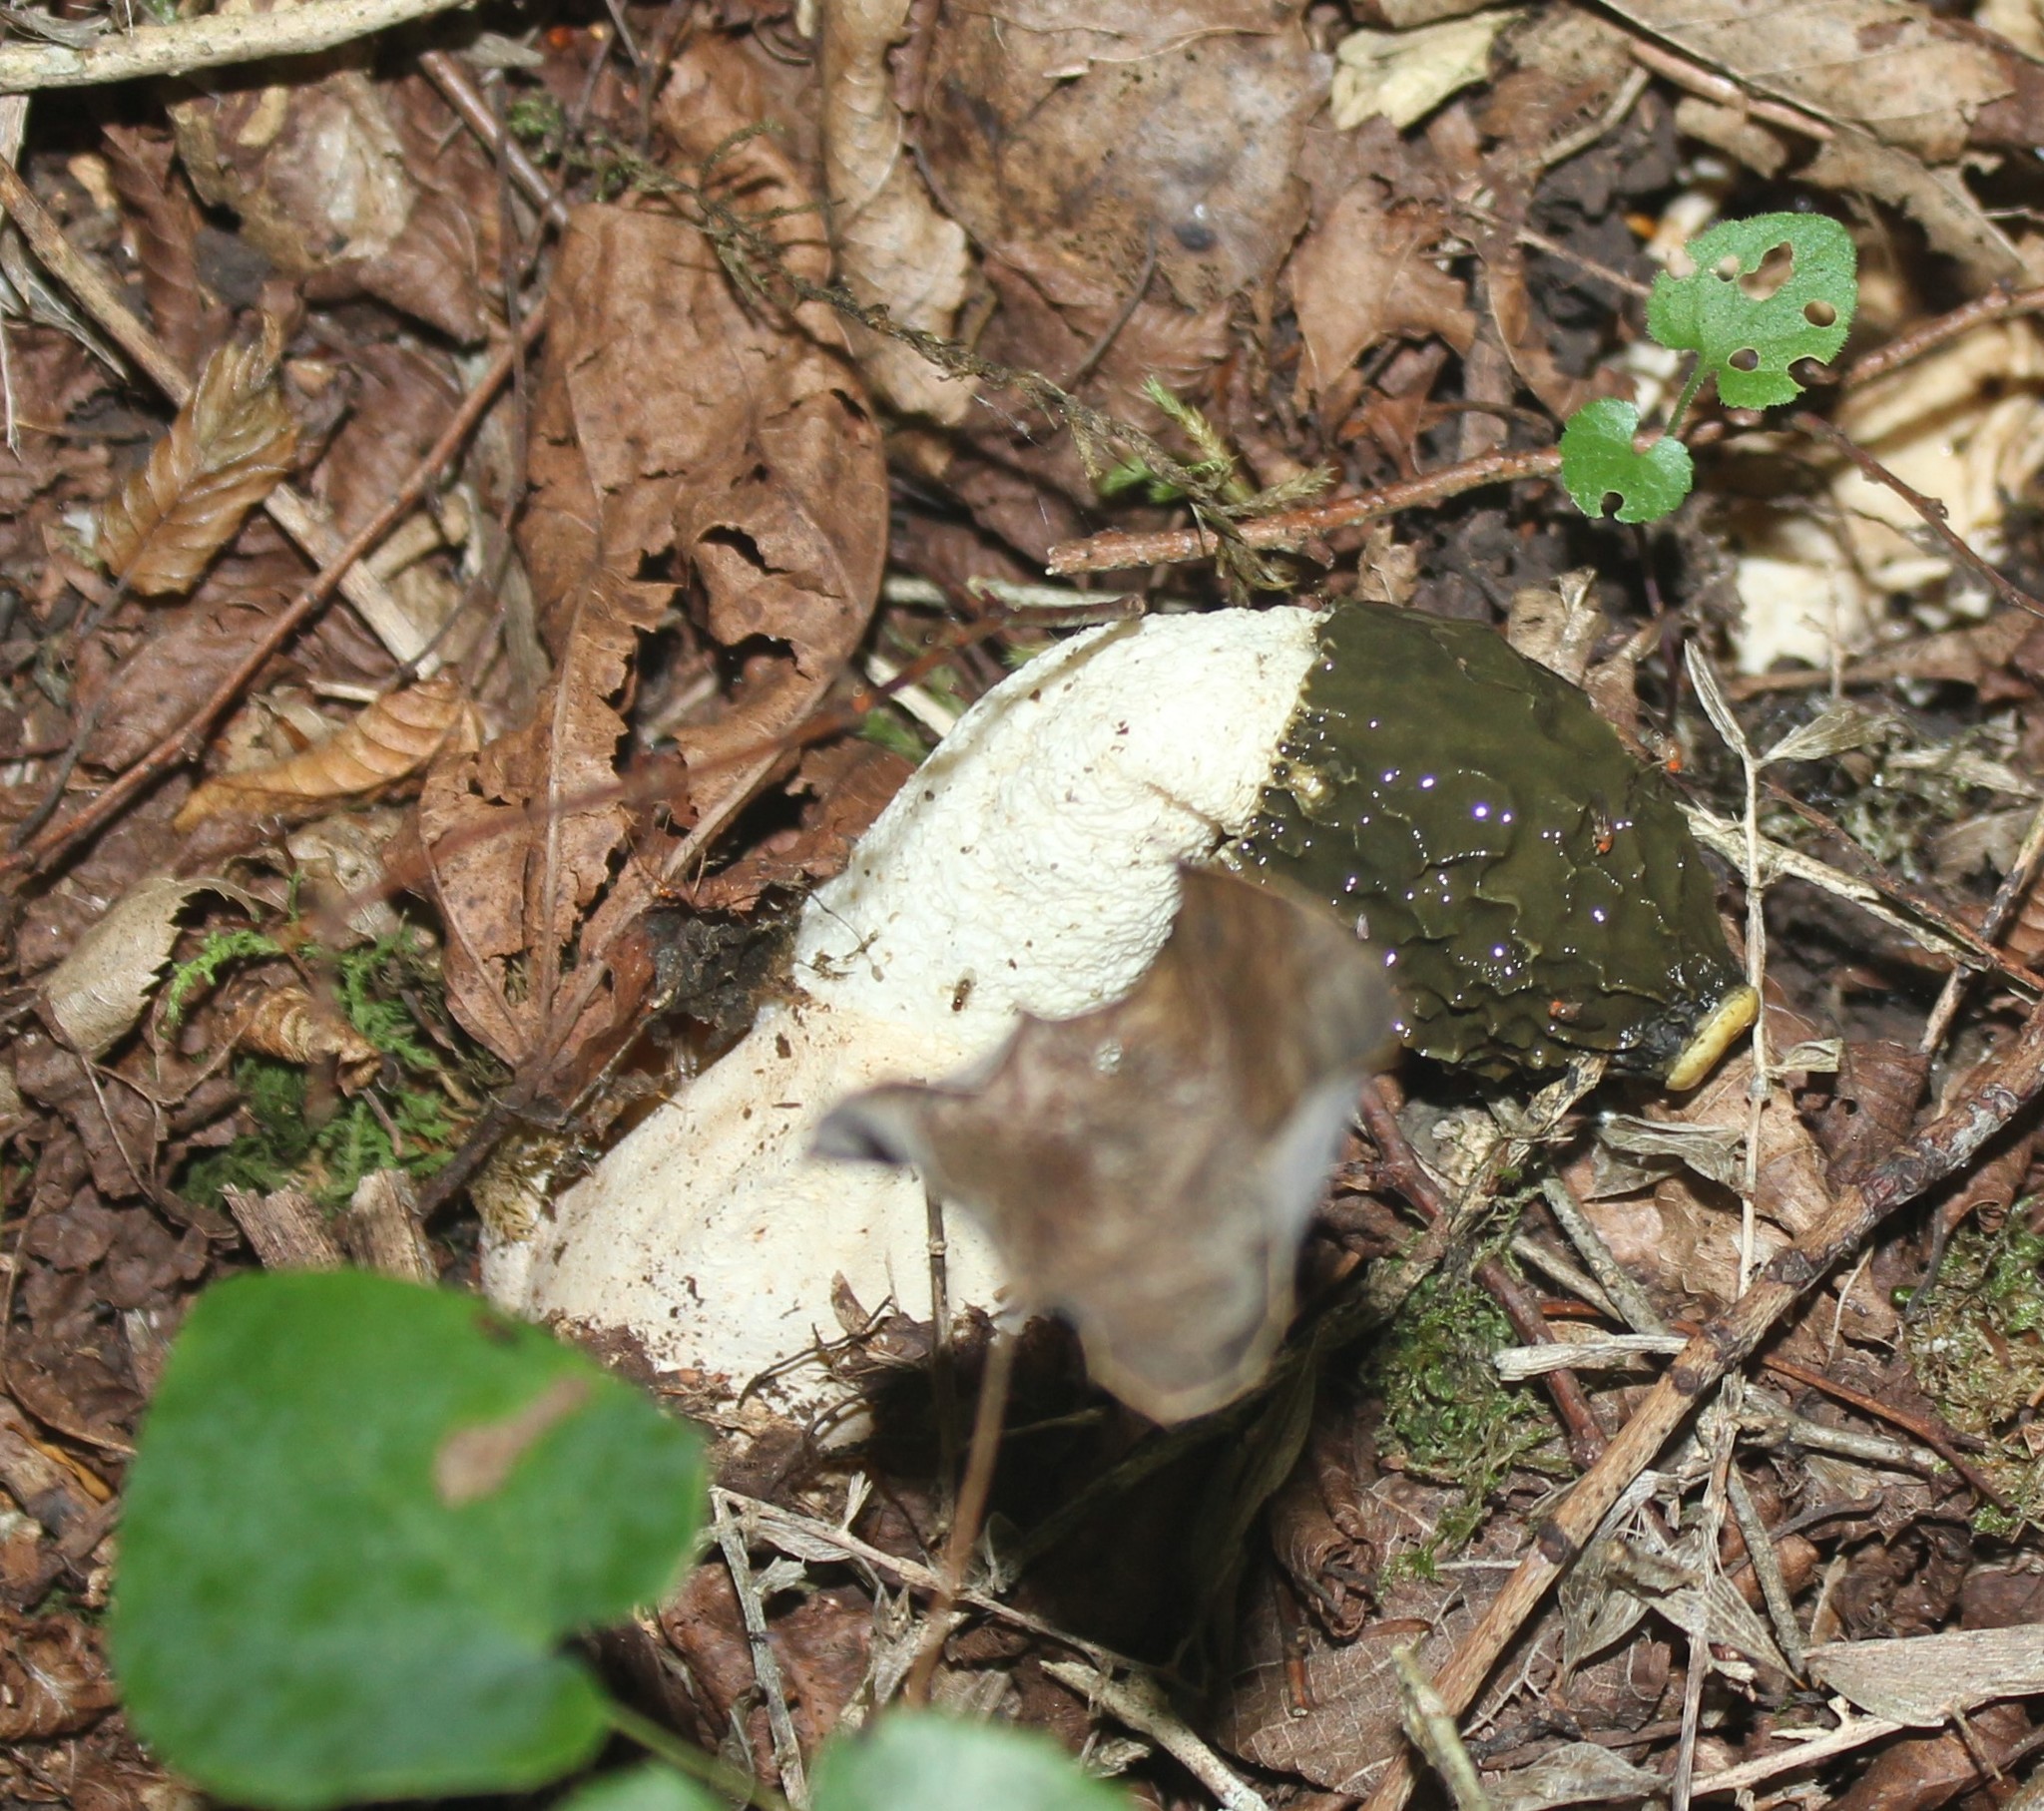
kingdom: Fungi
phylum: Basidiomycota
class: Agaricomycetes
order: Phallales
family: Phallaceae
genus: Phallus
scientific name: Phallus impudicus
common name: Common stinkhorn
